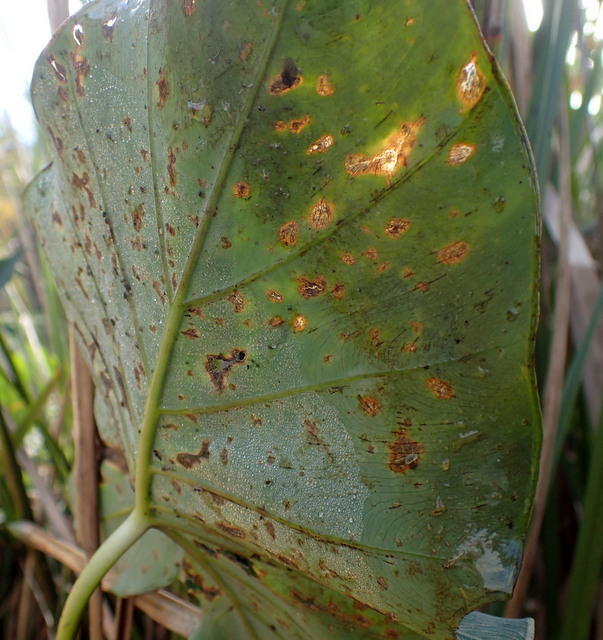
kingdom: Plantae
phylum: Tracheophyta
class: Liliopsida
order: Alismatales
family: Araceae
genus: Colocasia
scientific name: Colocasia esculenta
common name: Taro
